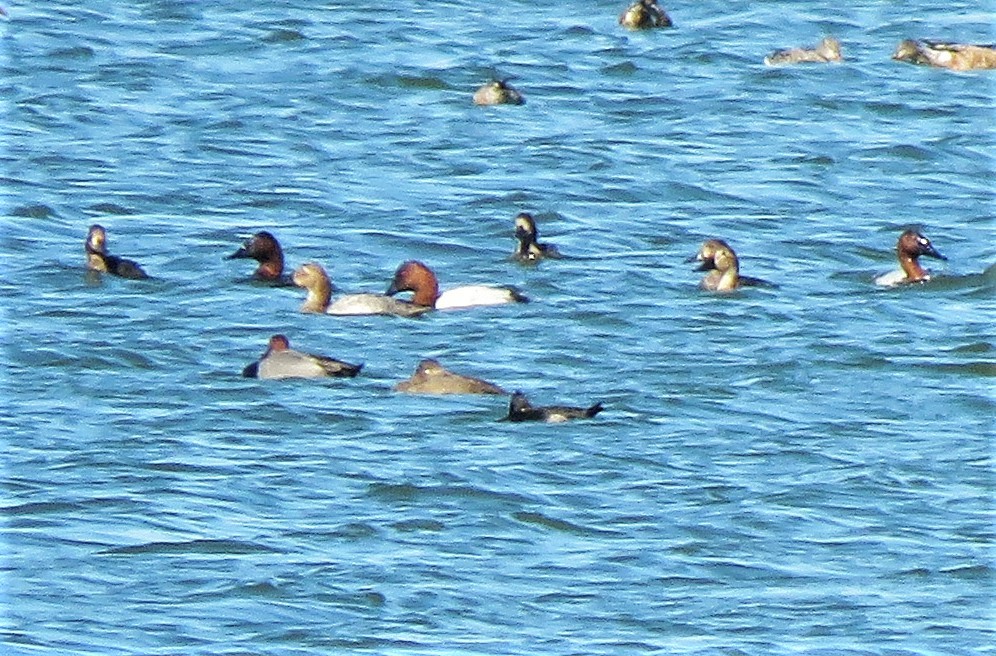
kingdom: Animalia
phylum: Chordata
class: Aves
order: Anseriformes
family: Anatidae
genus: Aythya
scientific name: Aythya valisineria
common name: Canvasback
